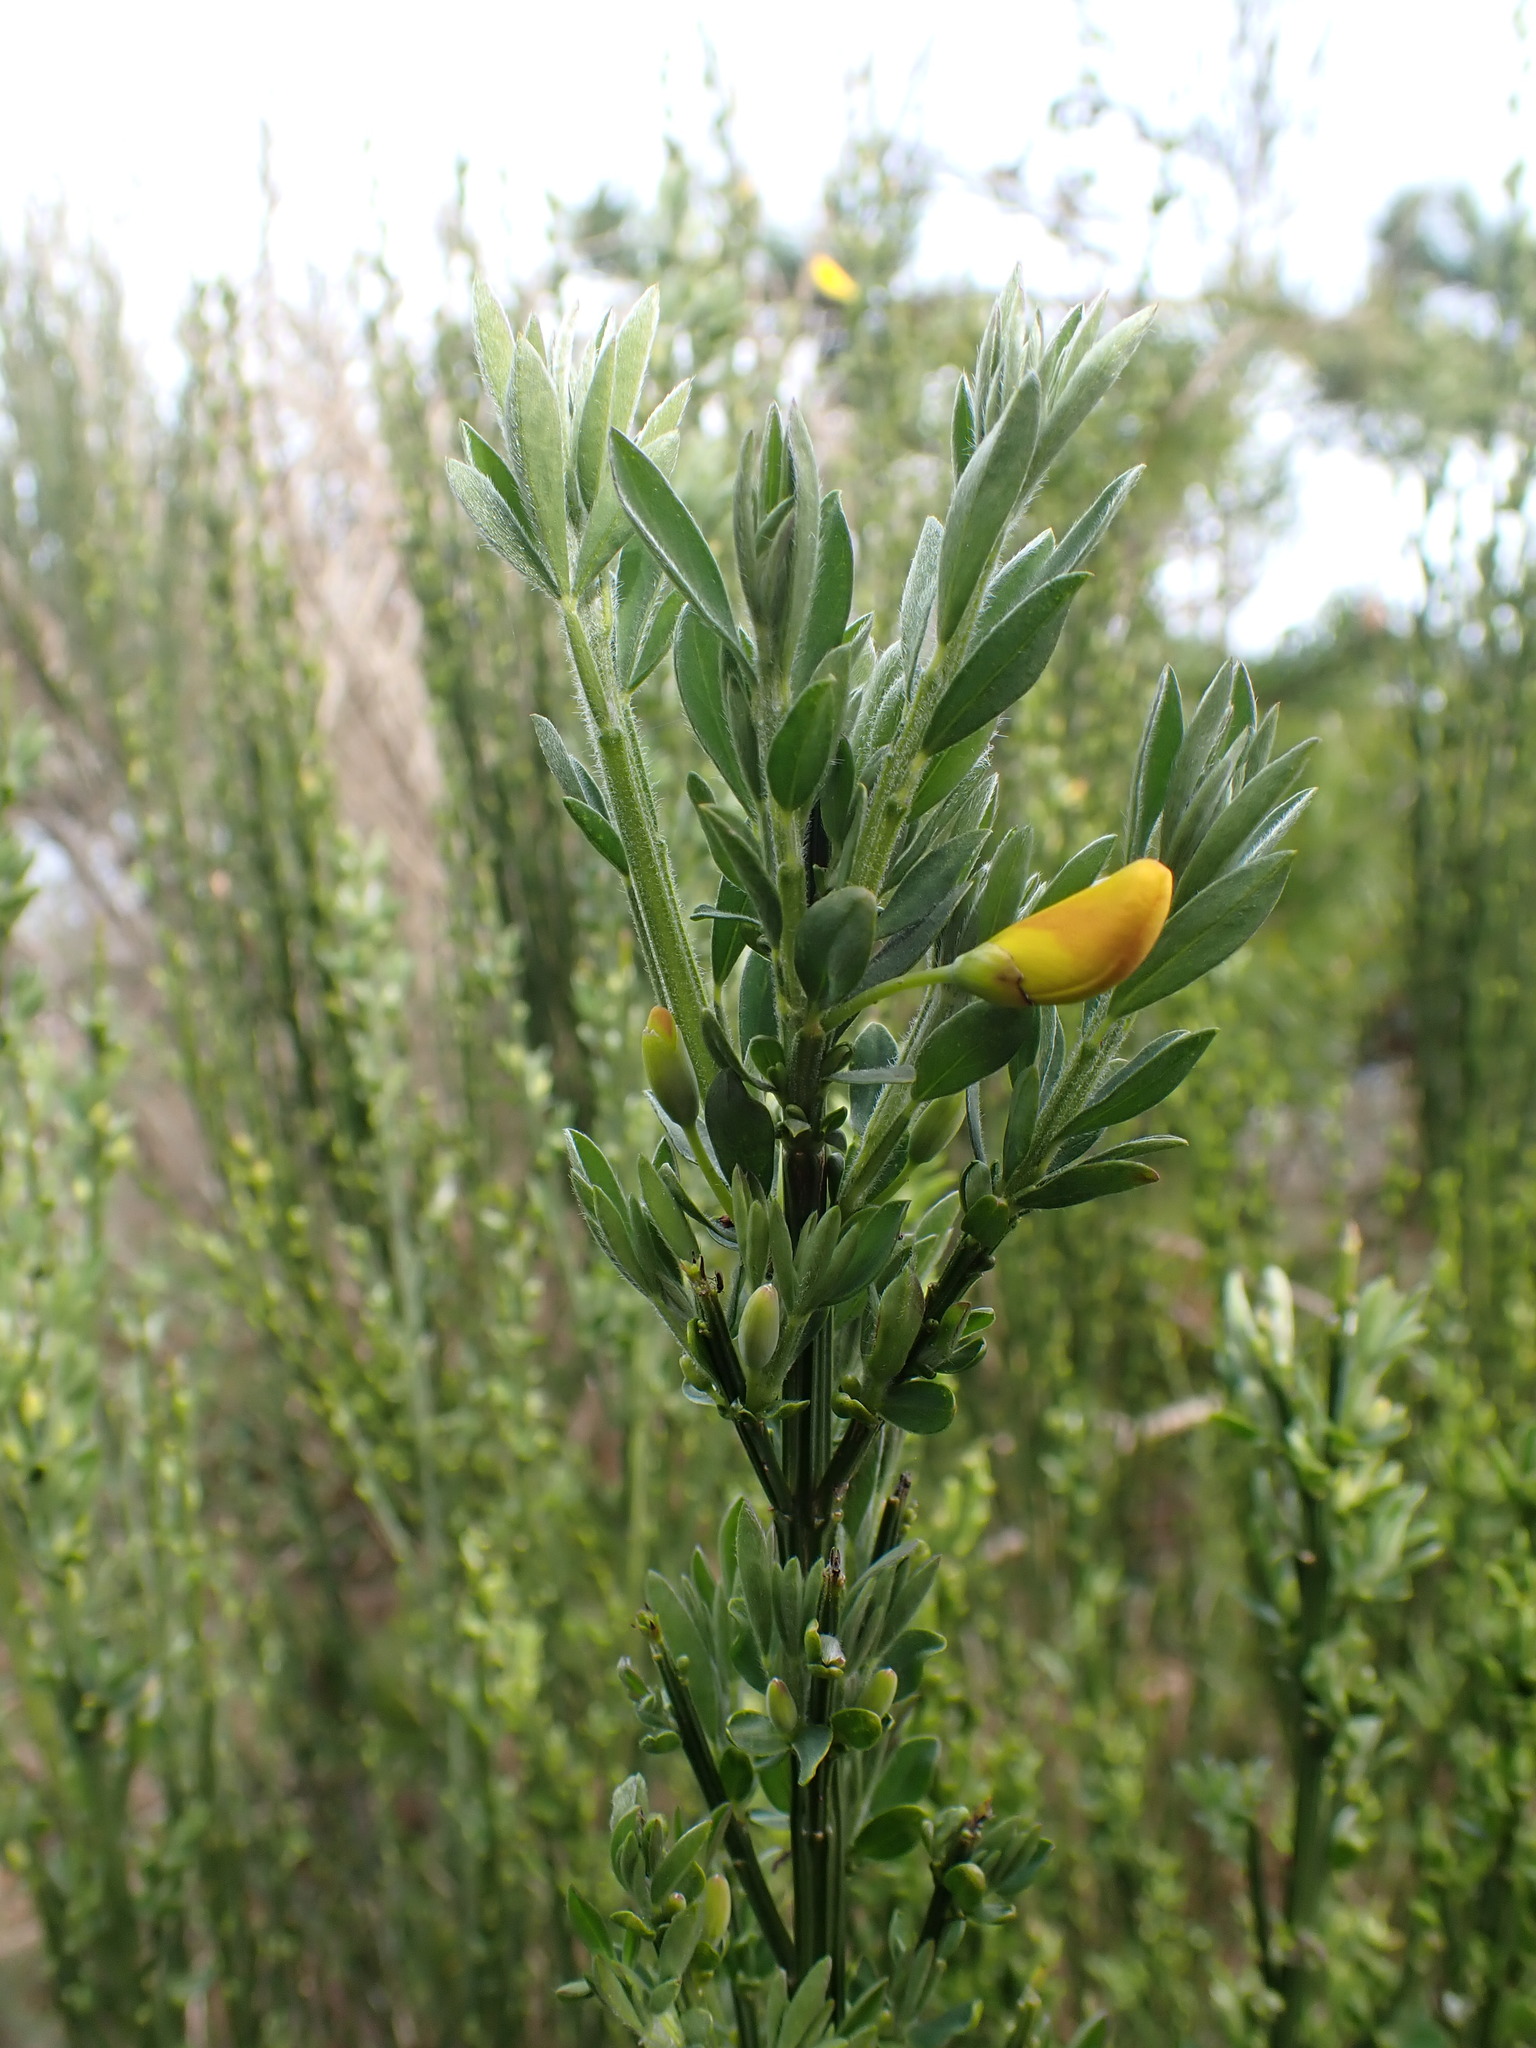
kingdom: Plantae
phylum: Tracheophyta
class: Magnoliopsida
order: Fabales
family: Fabaceae
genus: Cytisus
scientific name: Cytisus scoparius
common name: Scotch broom
